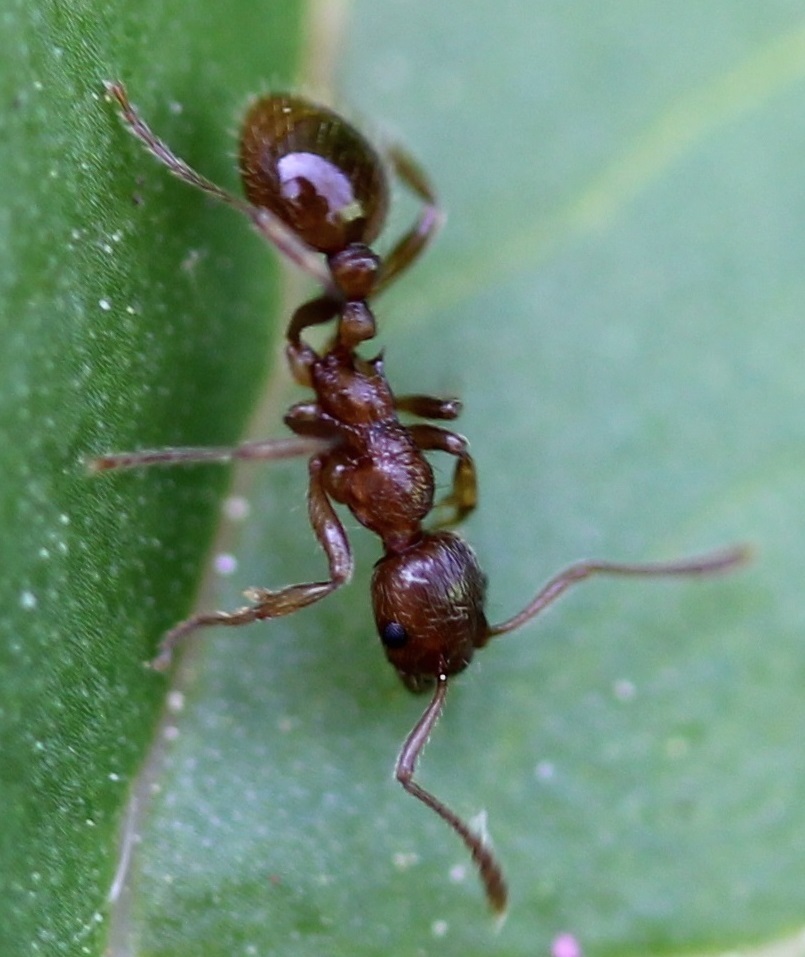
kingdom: Animalia
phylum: Arthropoda
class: Insecta
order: Hymenoptera
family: Formicidae
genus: Myrmica
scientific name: Myrmica rubra
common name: European fire ant
